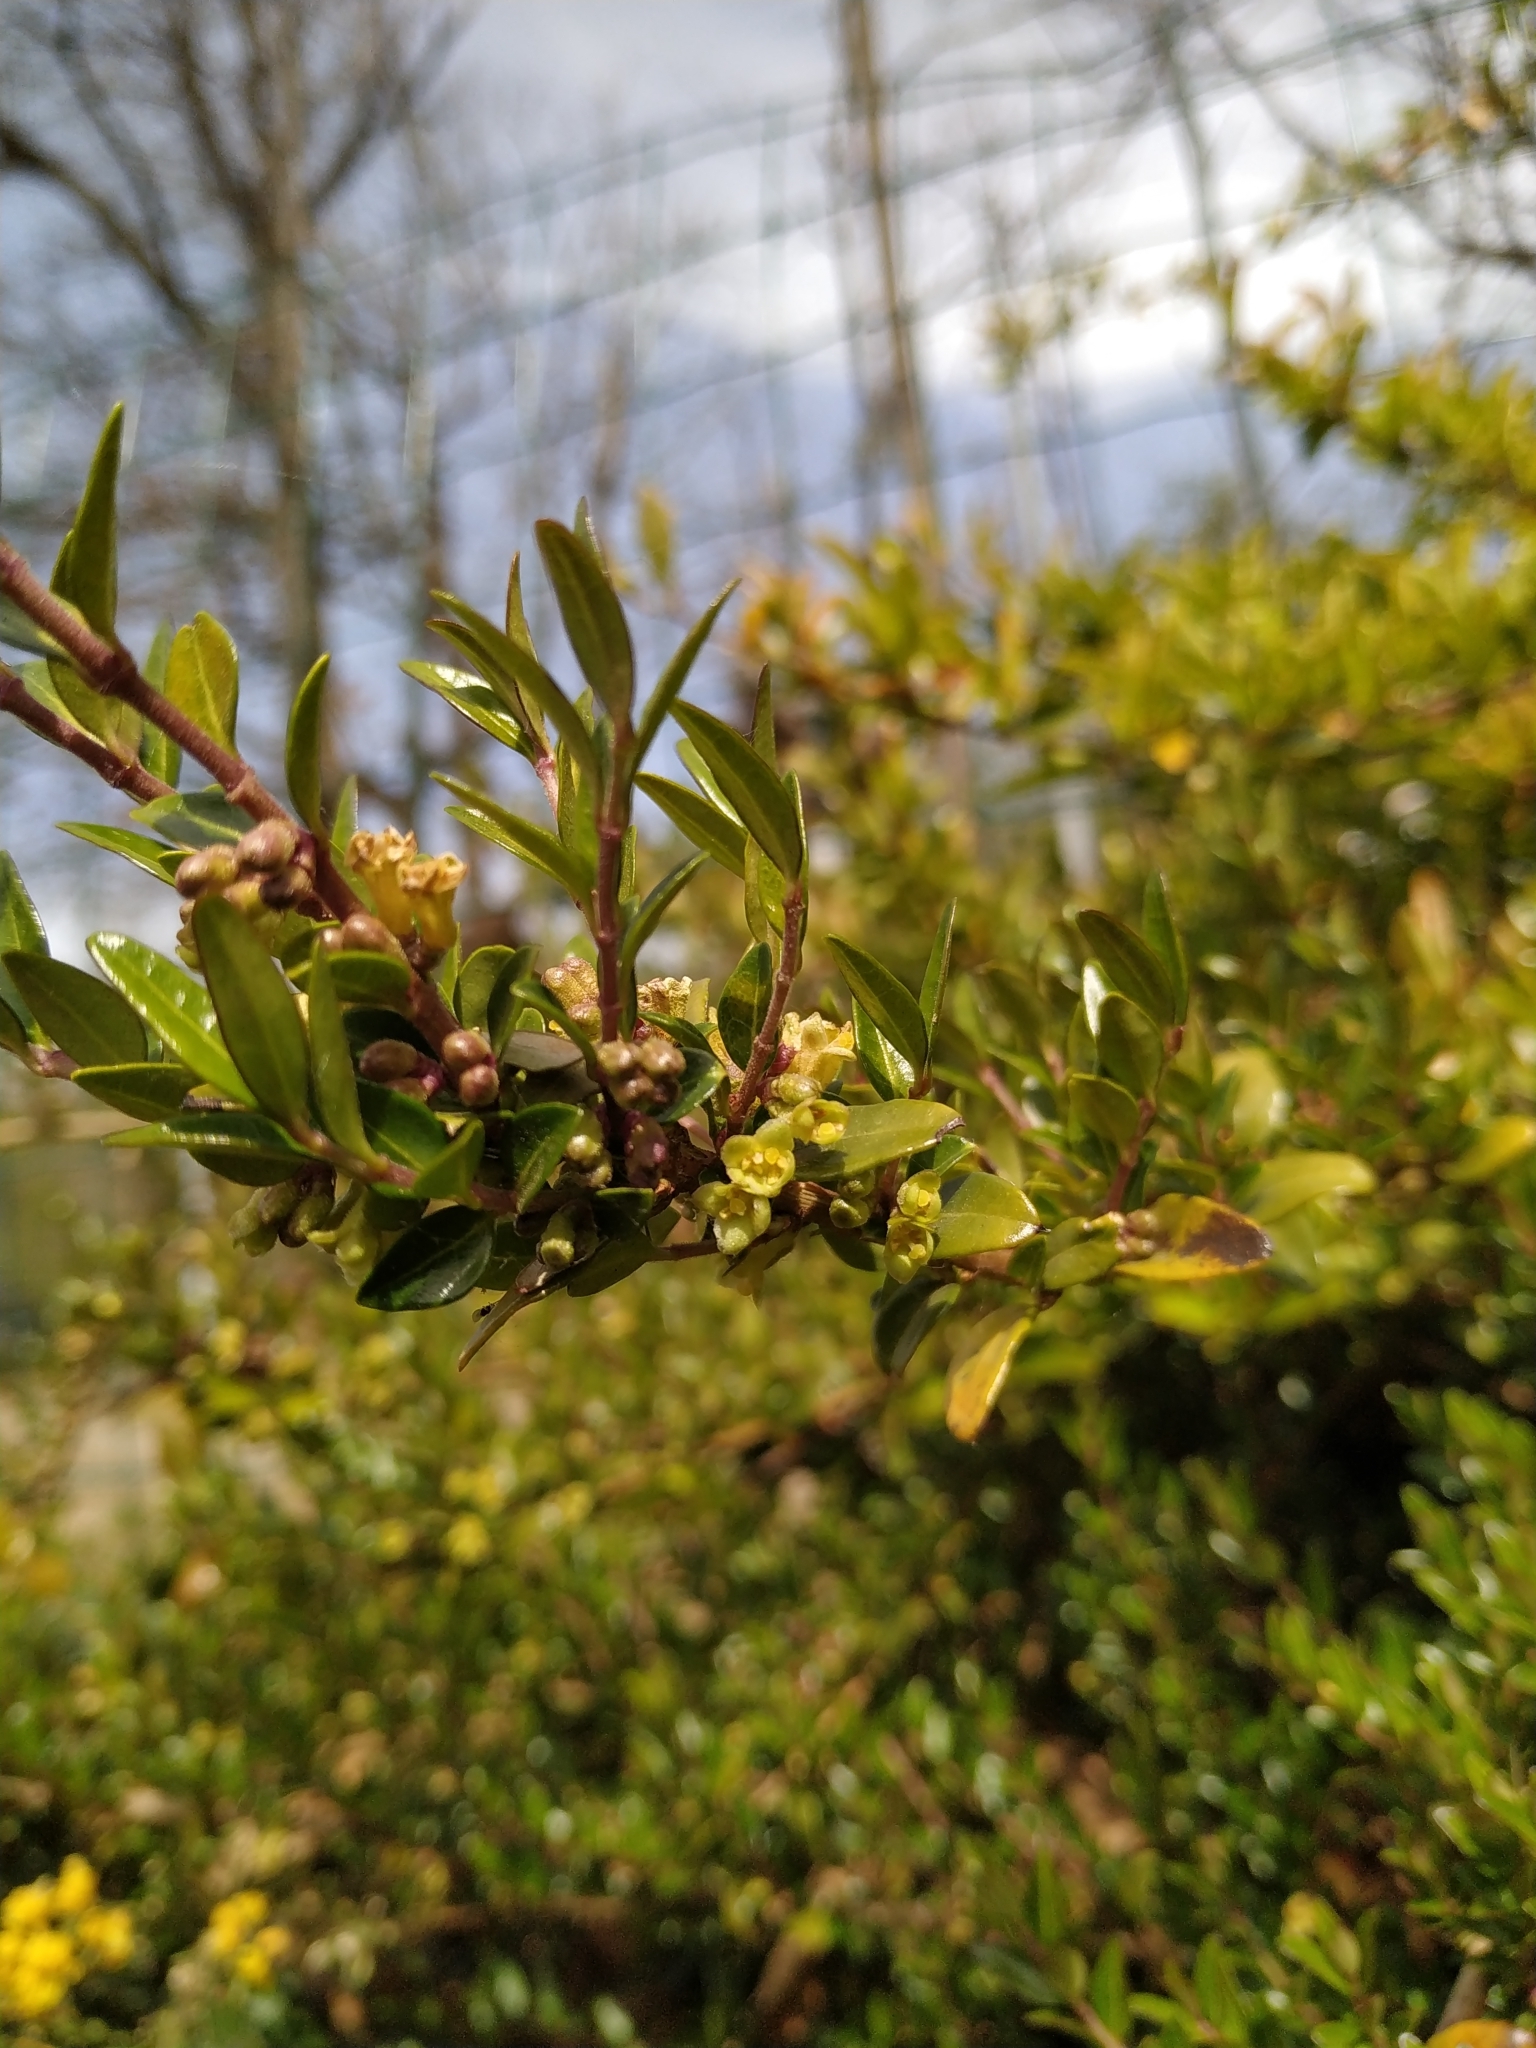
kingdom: Plantae
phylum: Tracheophyta
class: Magnoliopsida
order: Buxales
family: Buxaceae
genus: Buxus
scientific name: Buxus sempervirens
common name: Box
